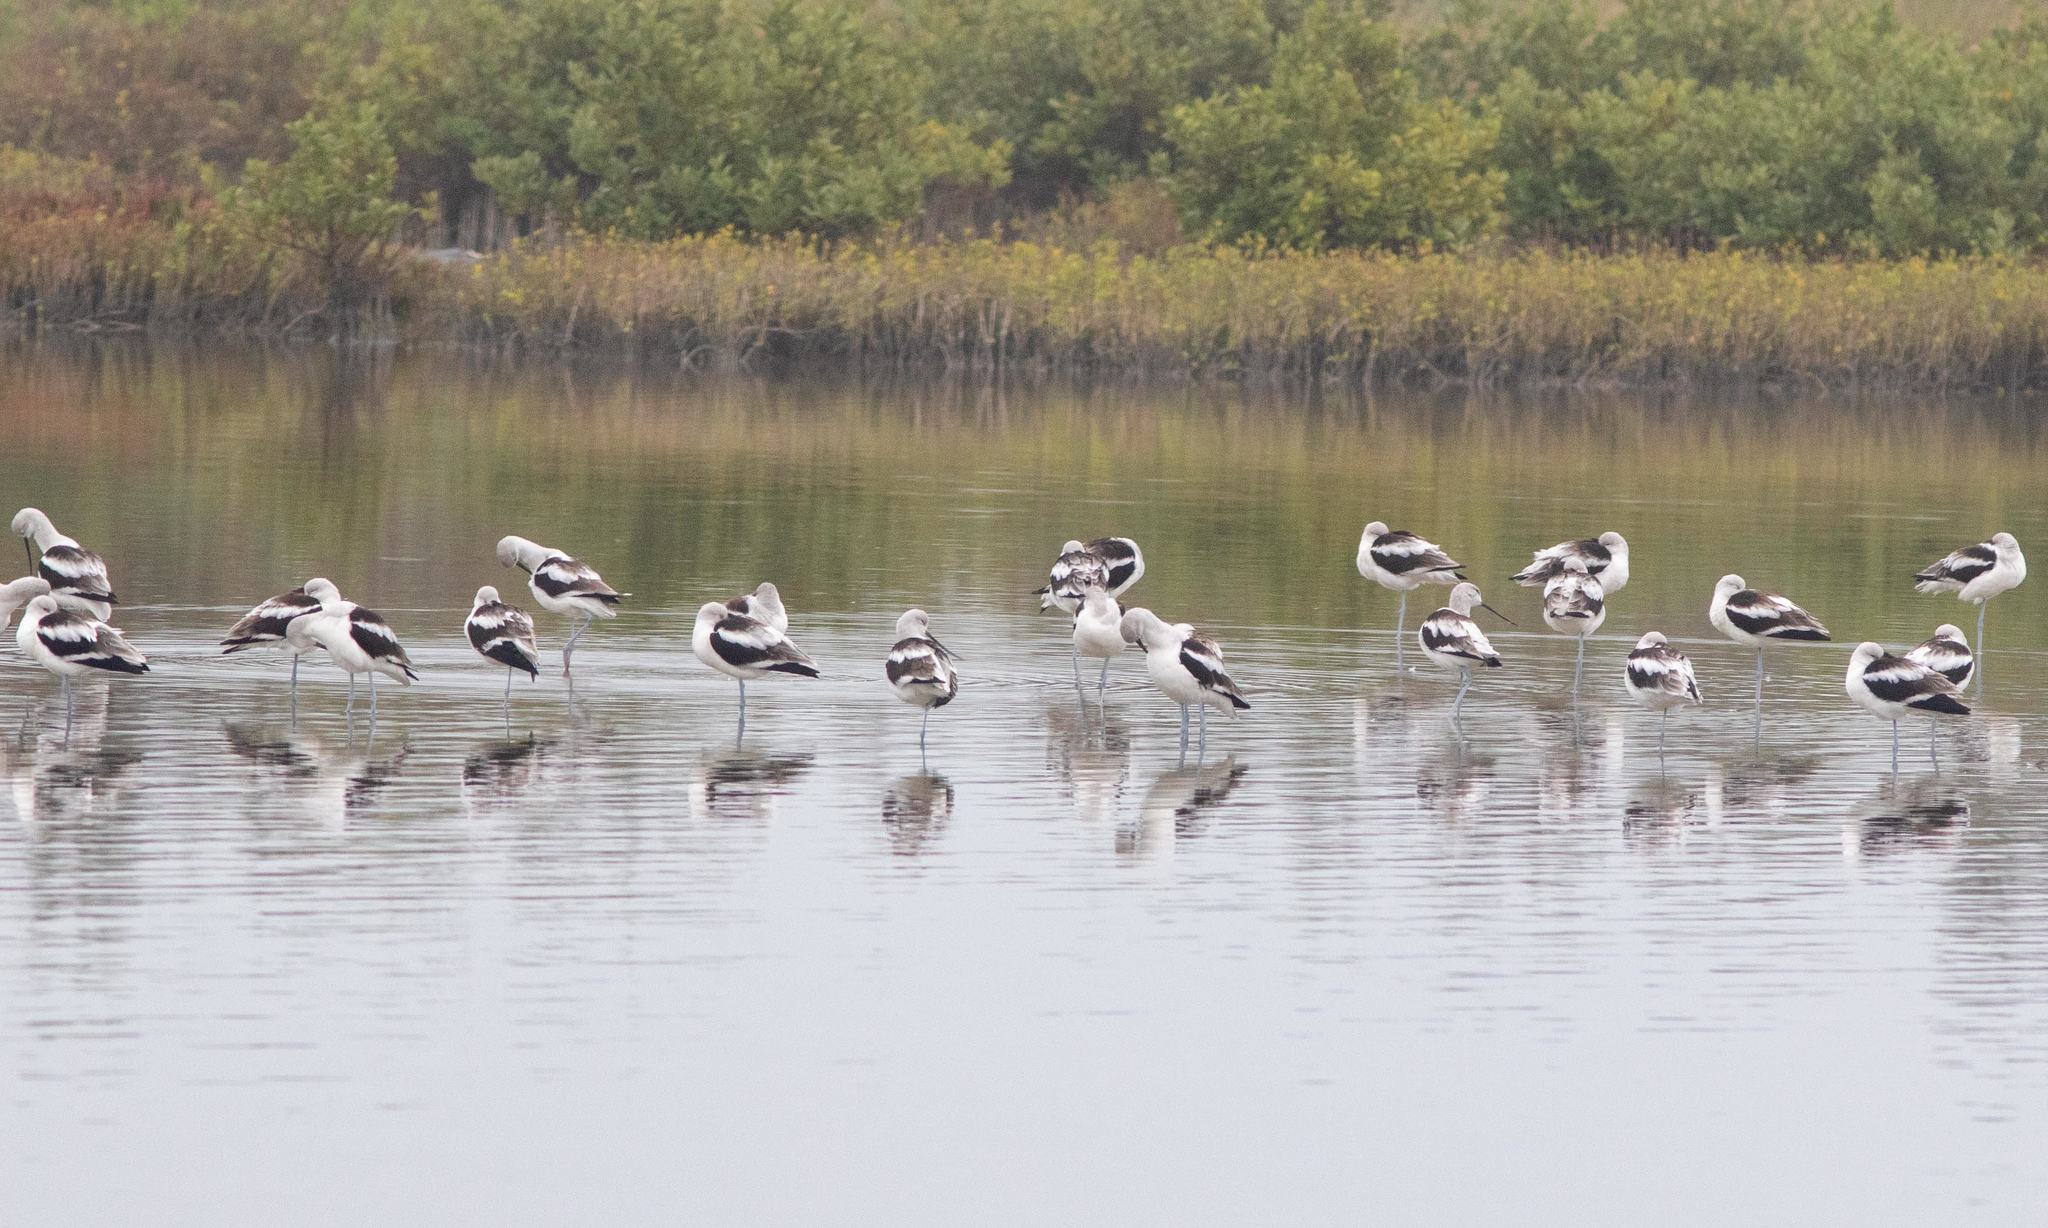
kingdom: Animalia
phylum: Chordata
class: Aves
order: Charadriiformes
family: Recurvirostridae
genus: Recurvirostra
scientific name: Recurvirostra americana
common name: American avocet
